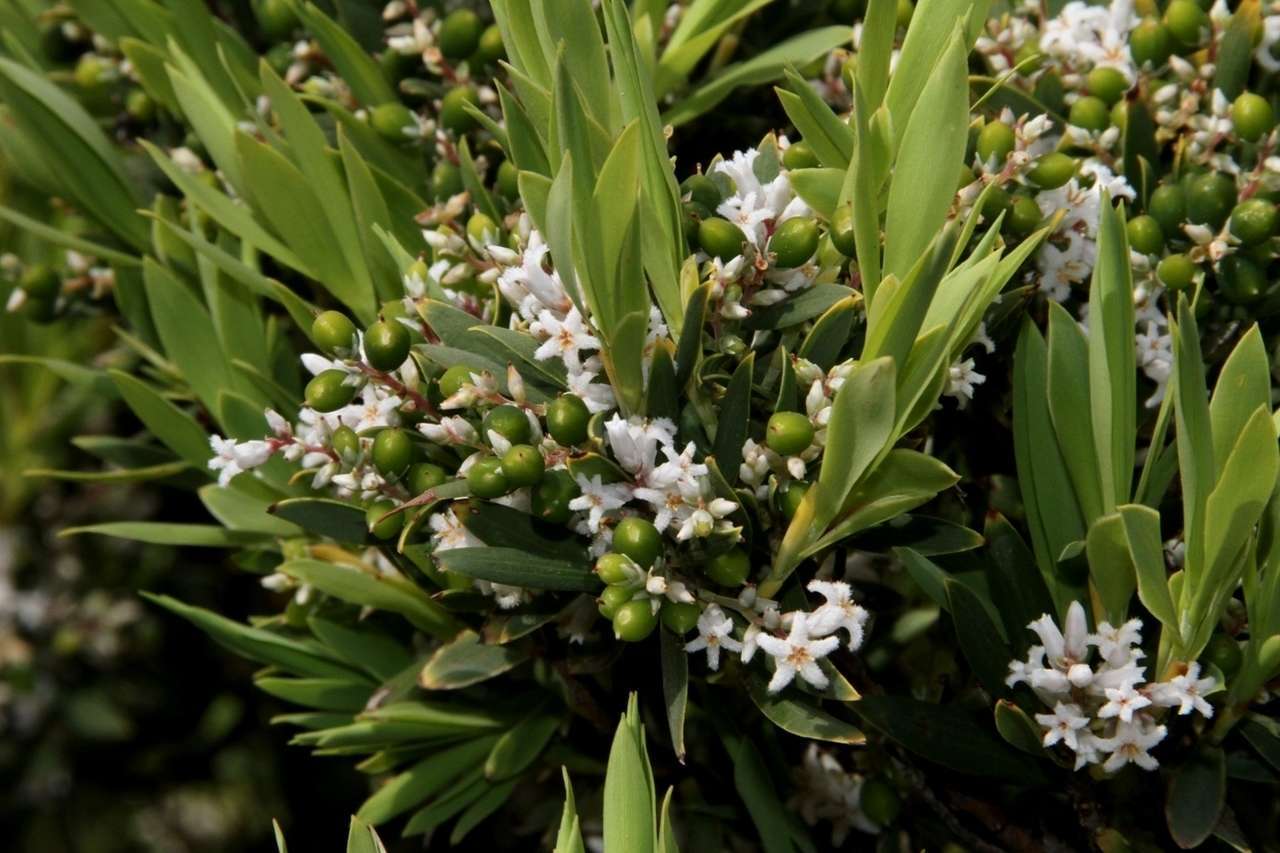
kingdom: Plantae
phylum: Tracheophyta
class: Magnoliopsida
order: Ericales
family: Ericaceae
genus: Leptecophylla
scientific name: Leptecophylla parvifolia
